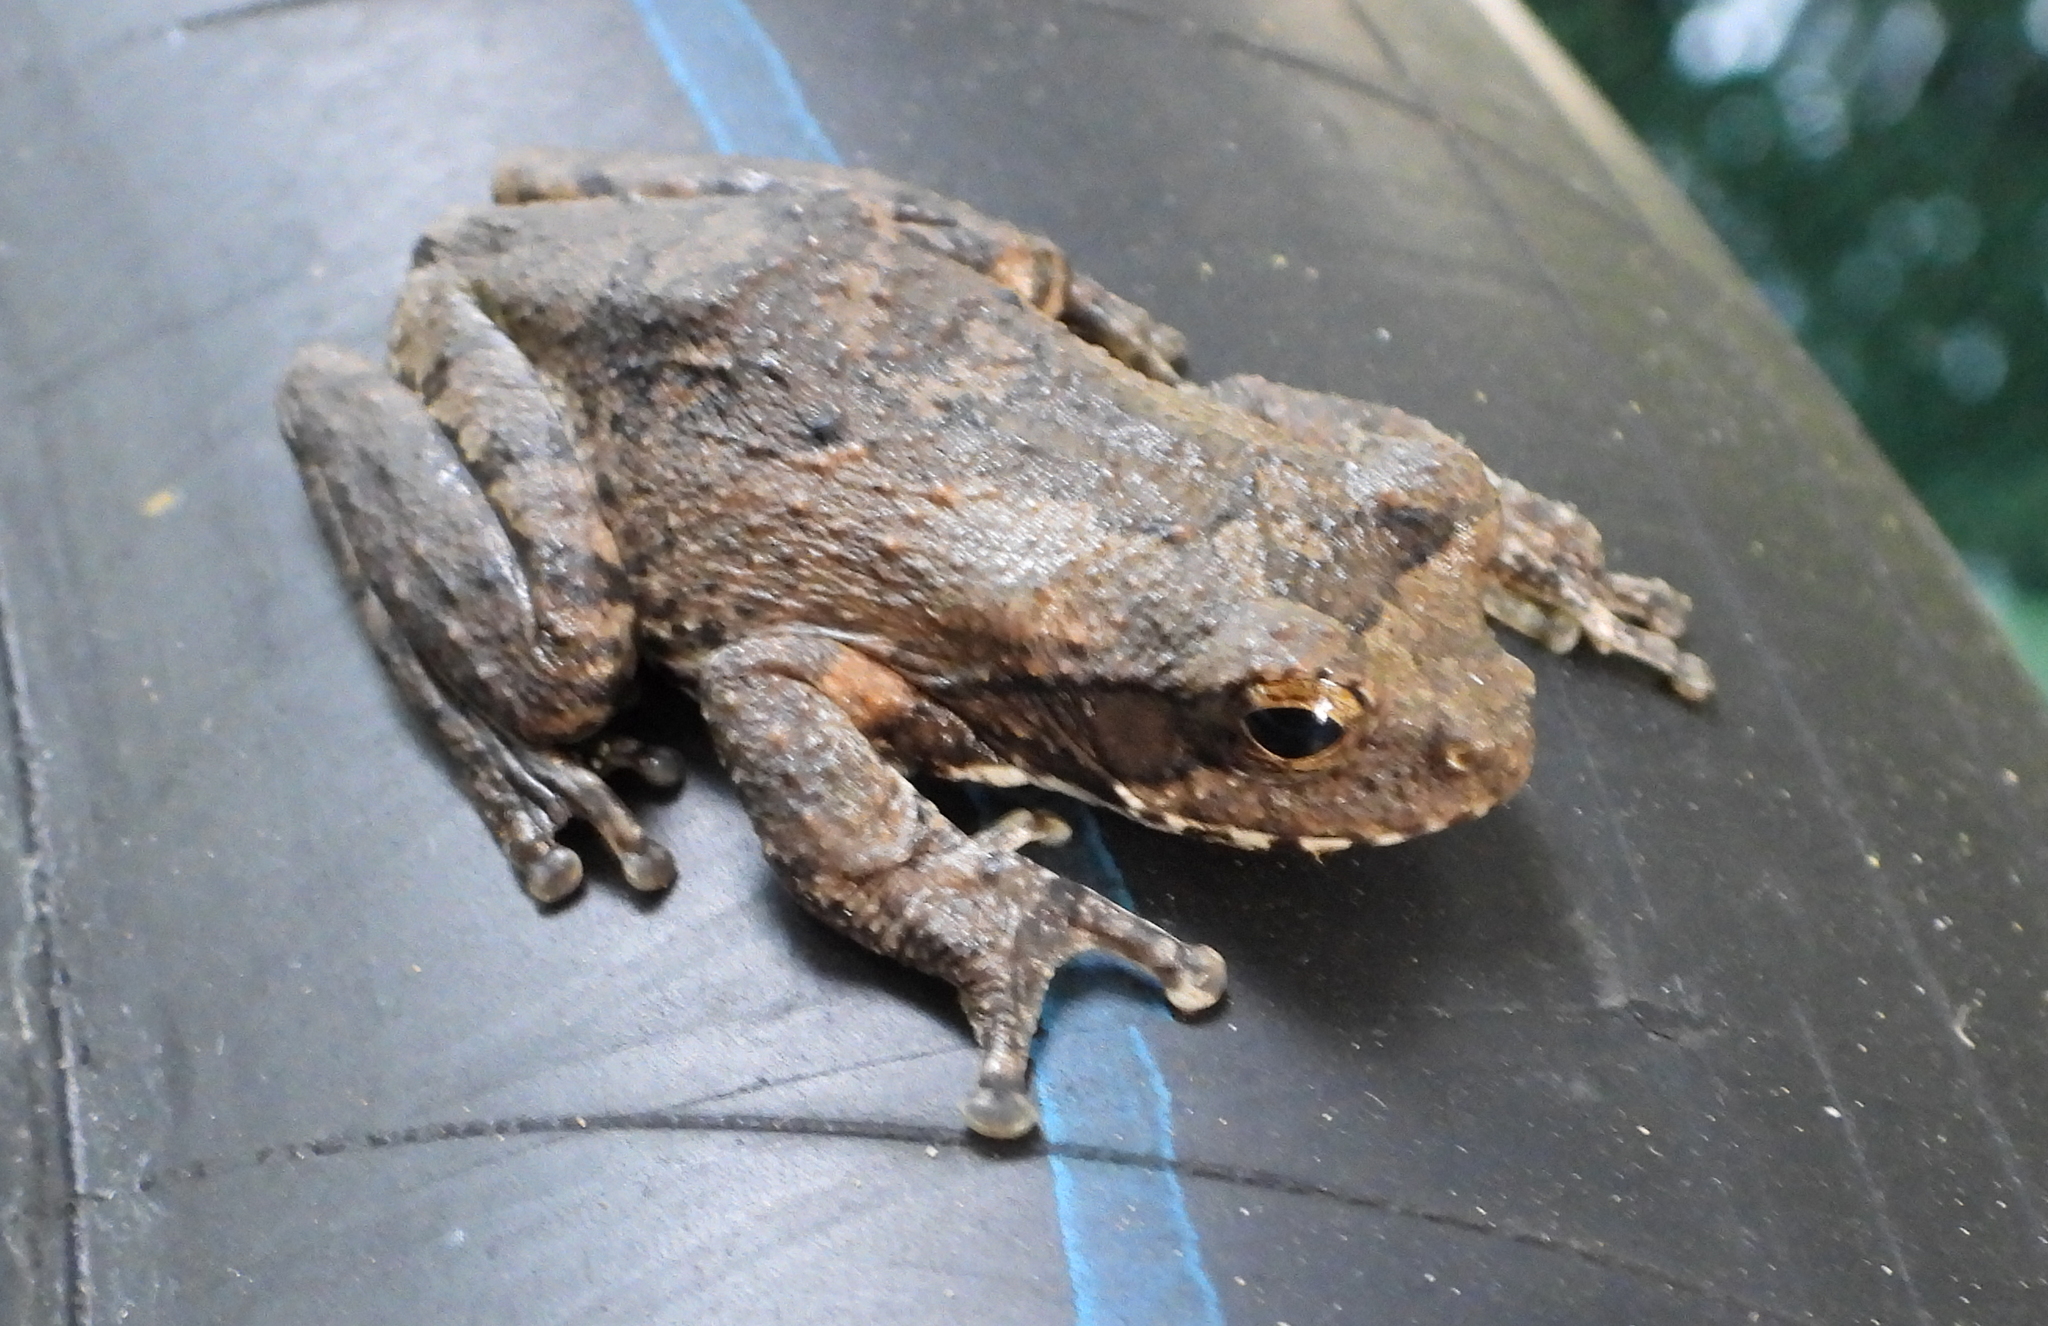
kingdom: Animalia
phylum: Chordata
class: Amphibia
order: Anura
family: Rhacophoridae
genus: Chiromantis
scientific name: Chiromantis xerampelina
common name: African gray treefrog
